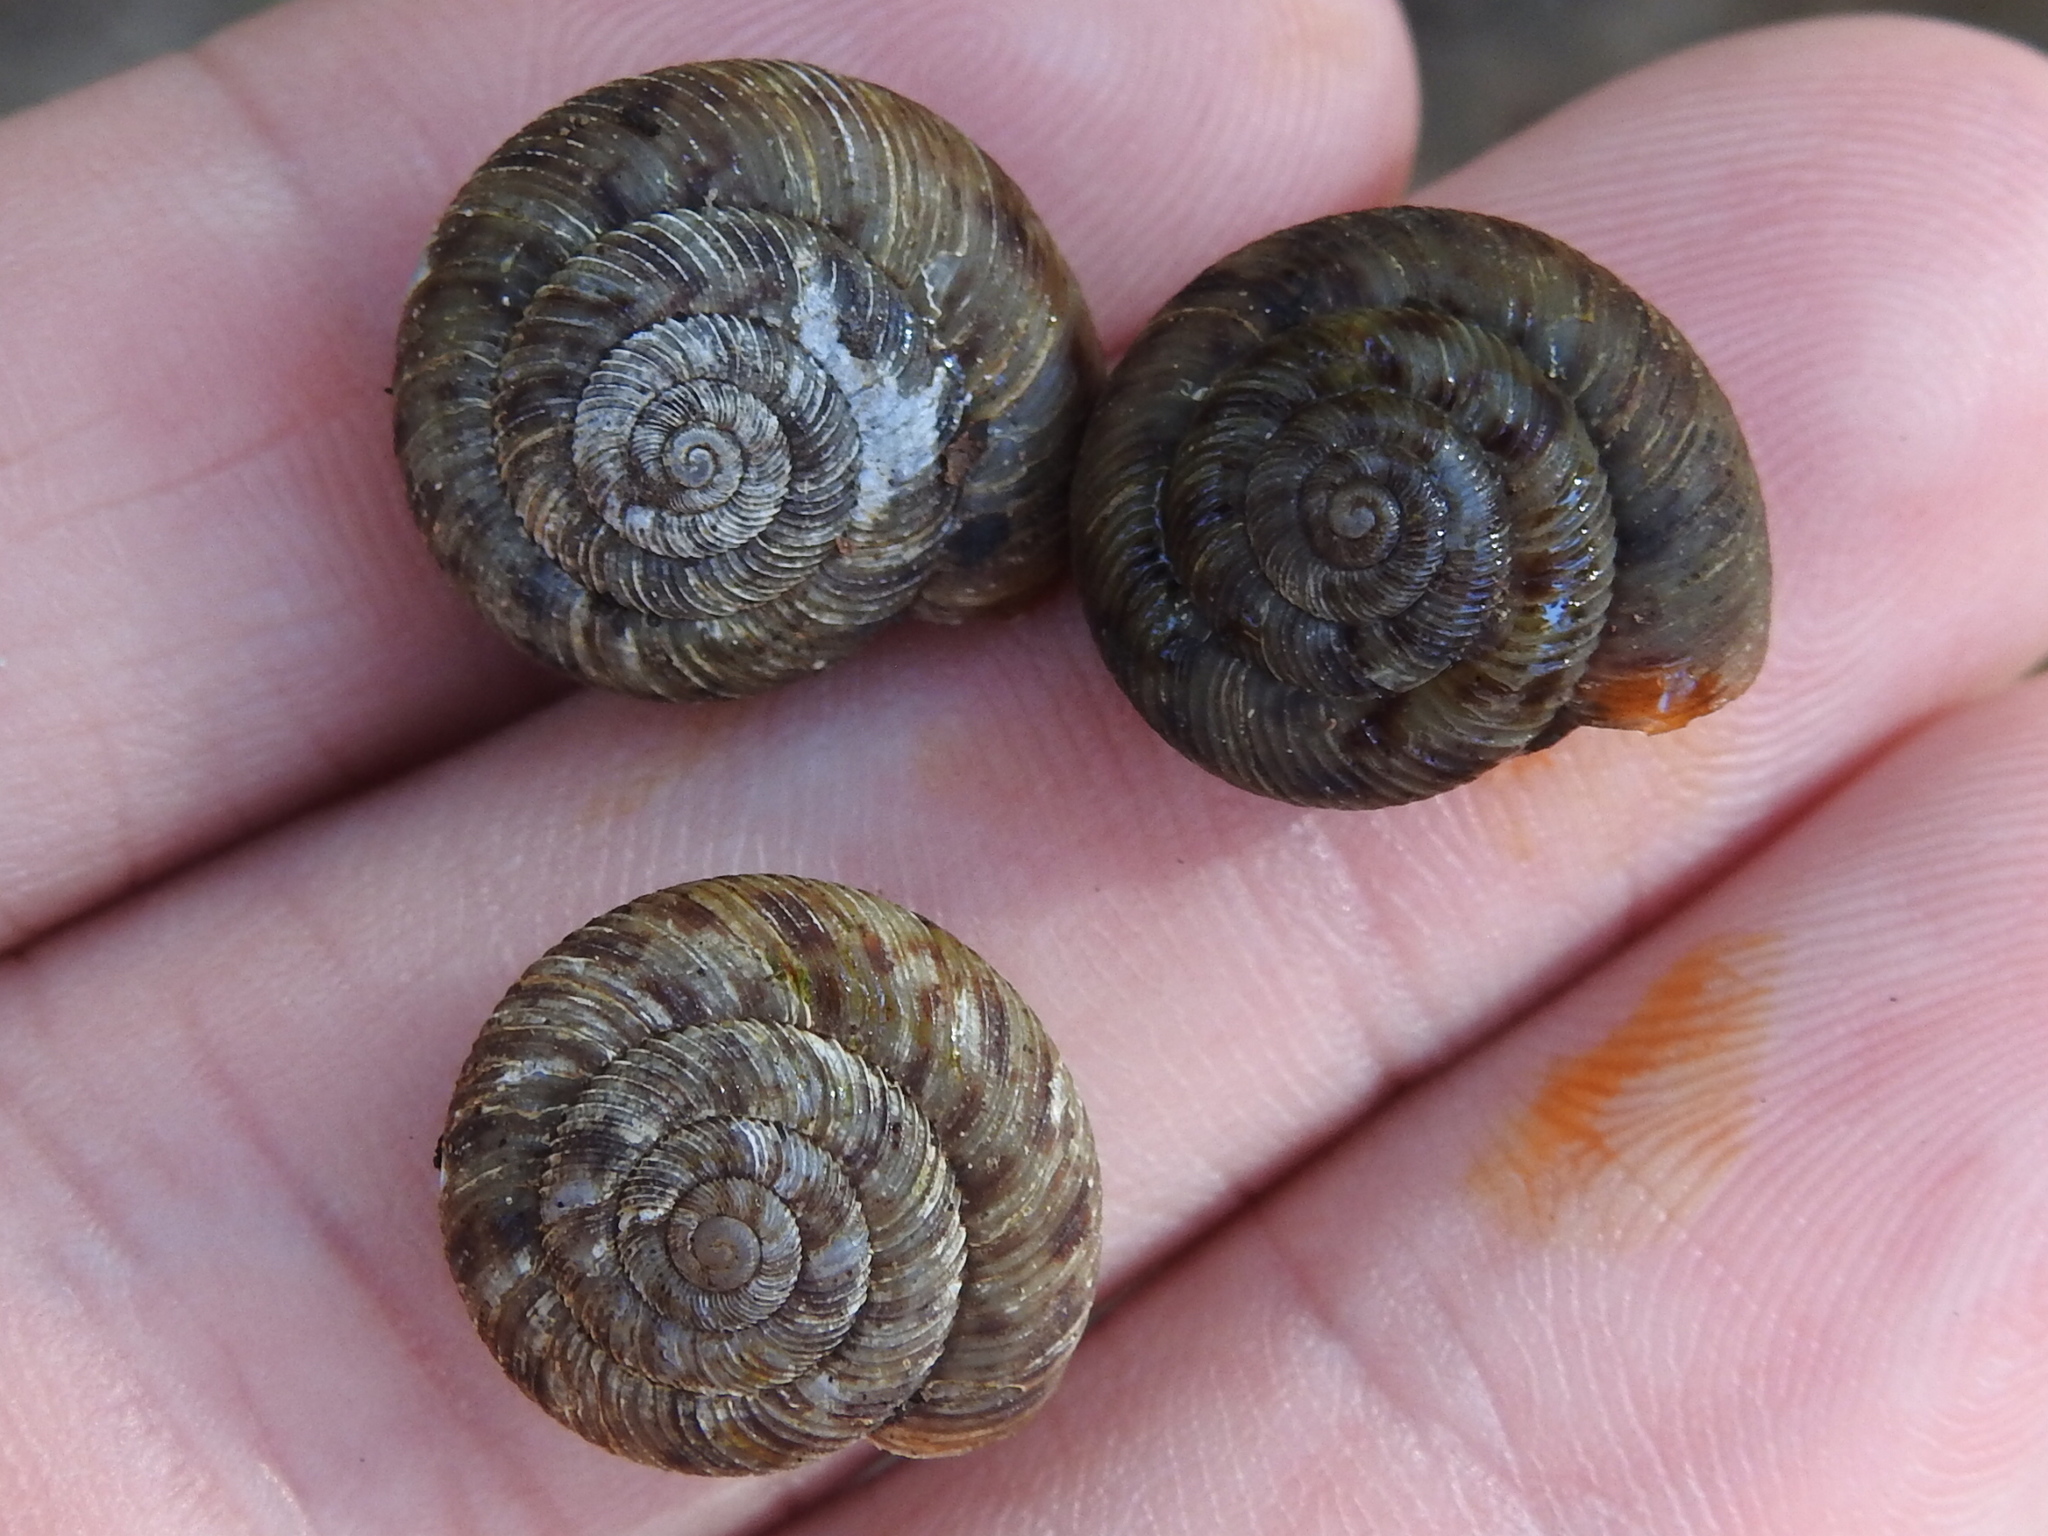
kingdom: Animalia
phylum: Mollusca
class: Gastropoda
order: Stylommatophora
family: Discidae
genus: Anguispira
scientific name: Anguispira strongylodes
